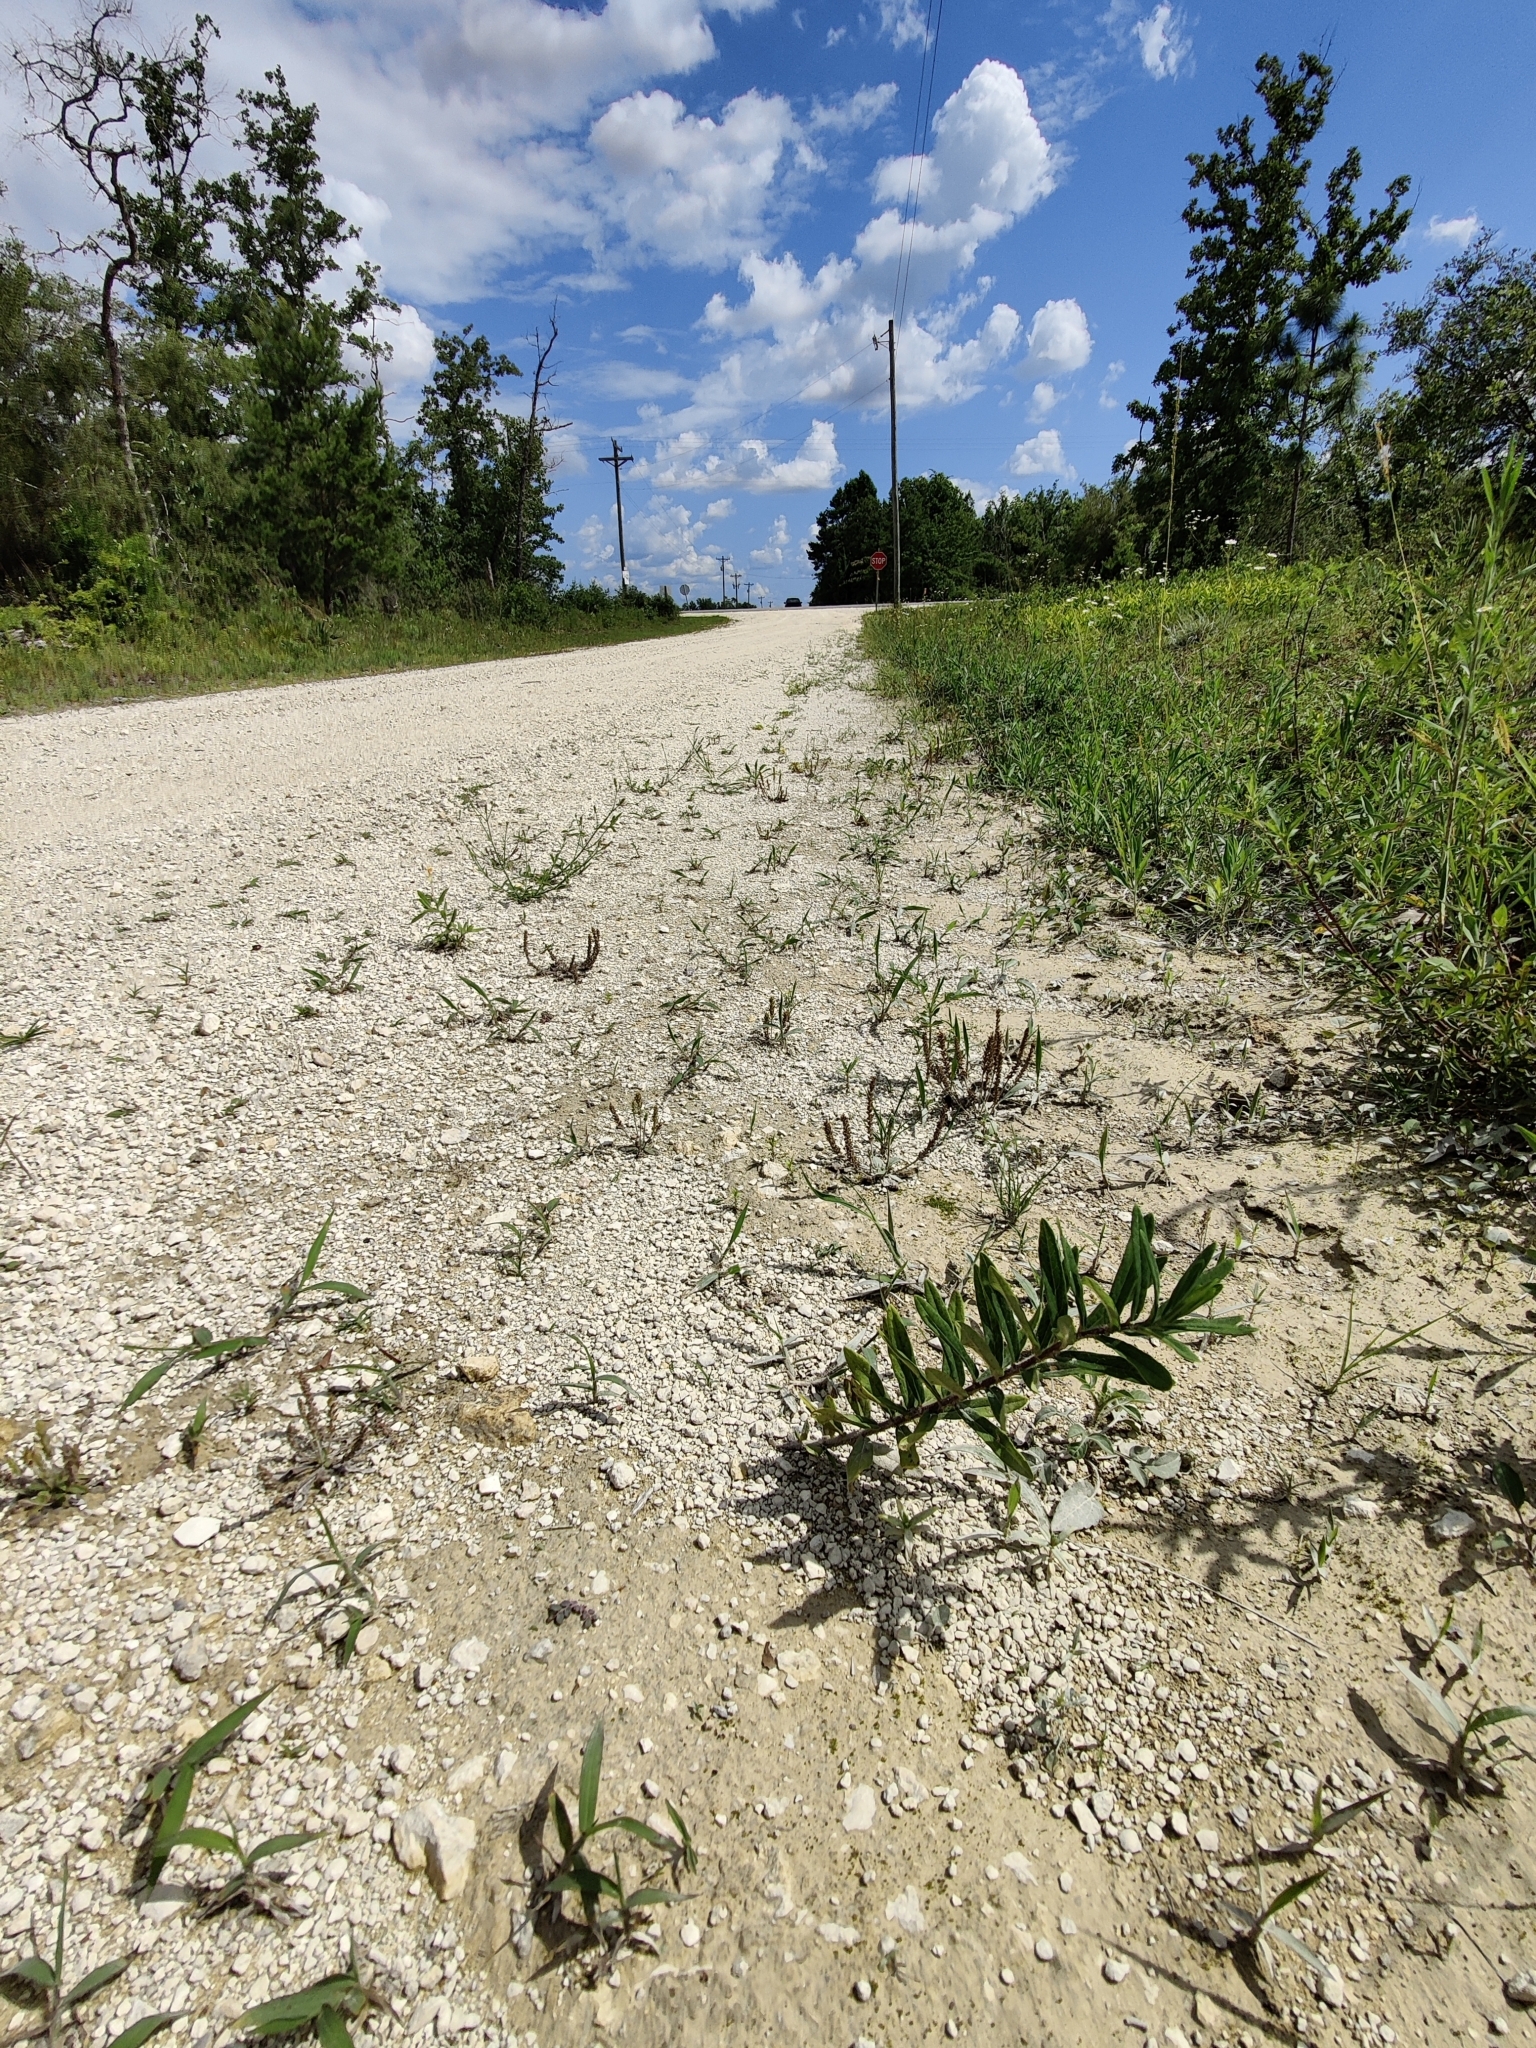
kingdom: Plantae
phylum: Tracheophyta
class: Magnoliopsida
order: Gentianales
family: Apocynaceae
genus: Asclepias
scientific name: Asclepias tuberosa
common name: Butterfly milkweed
